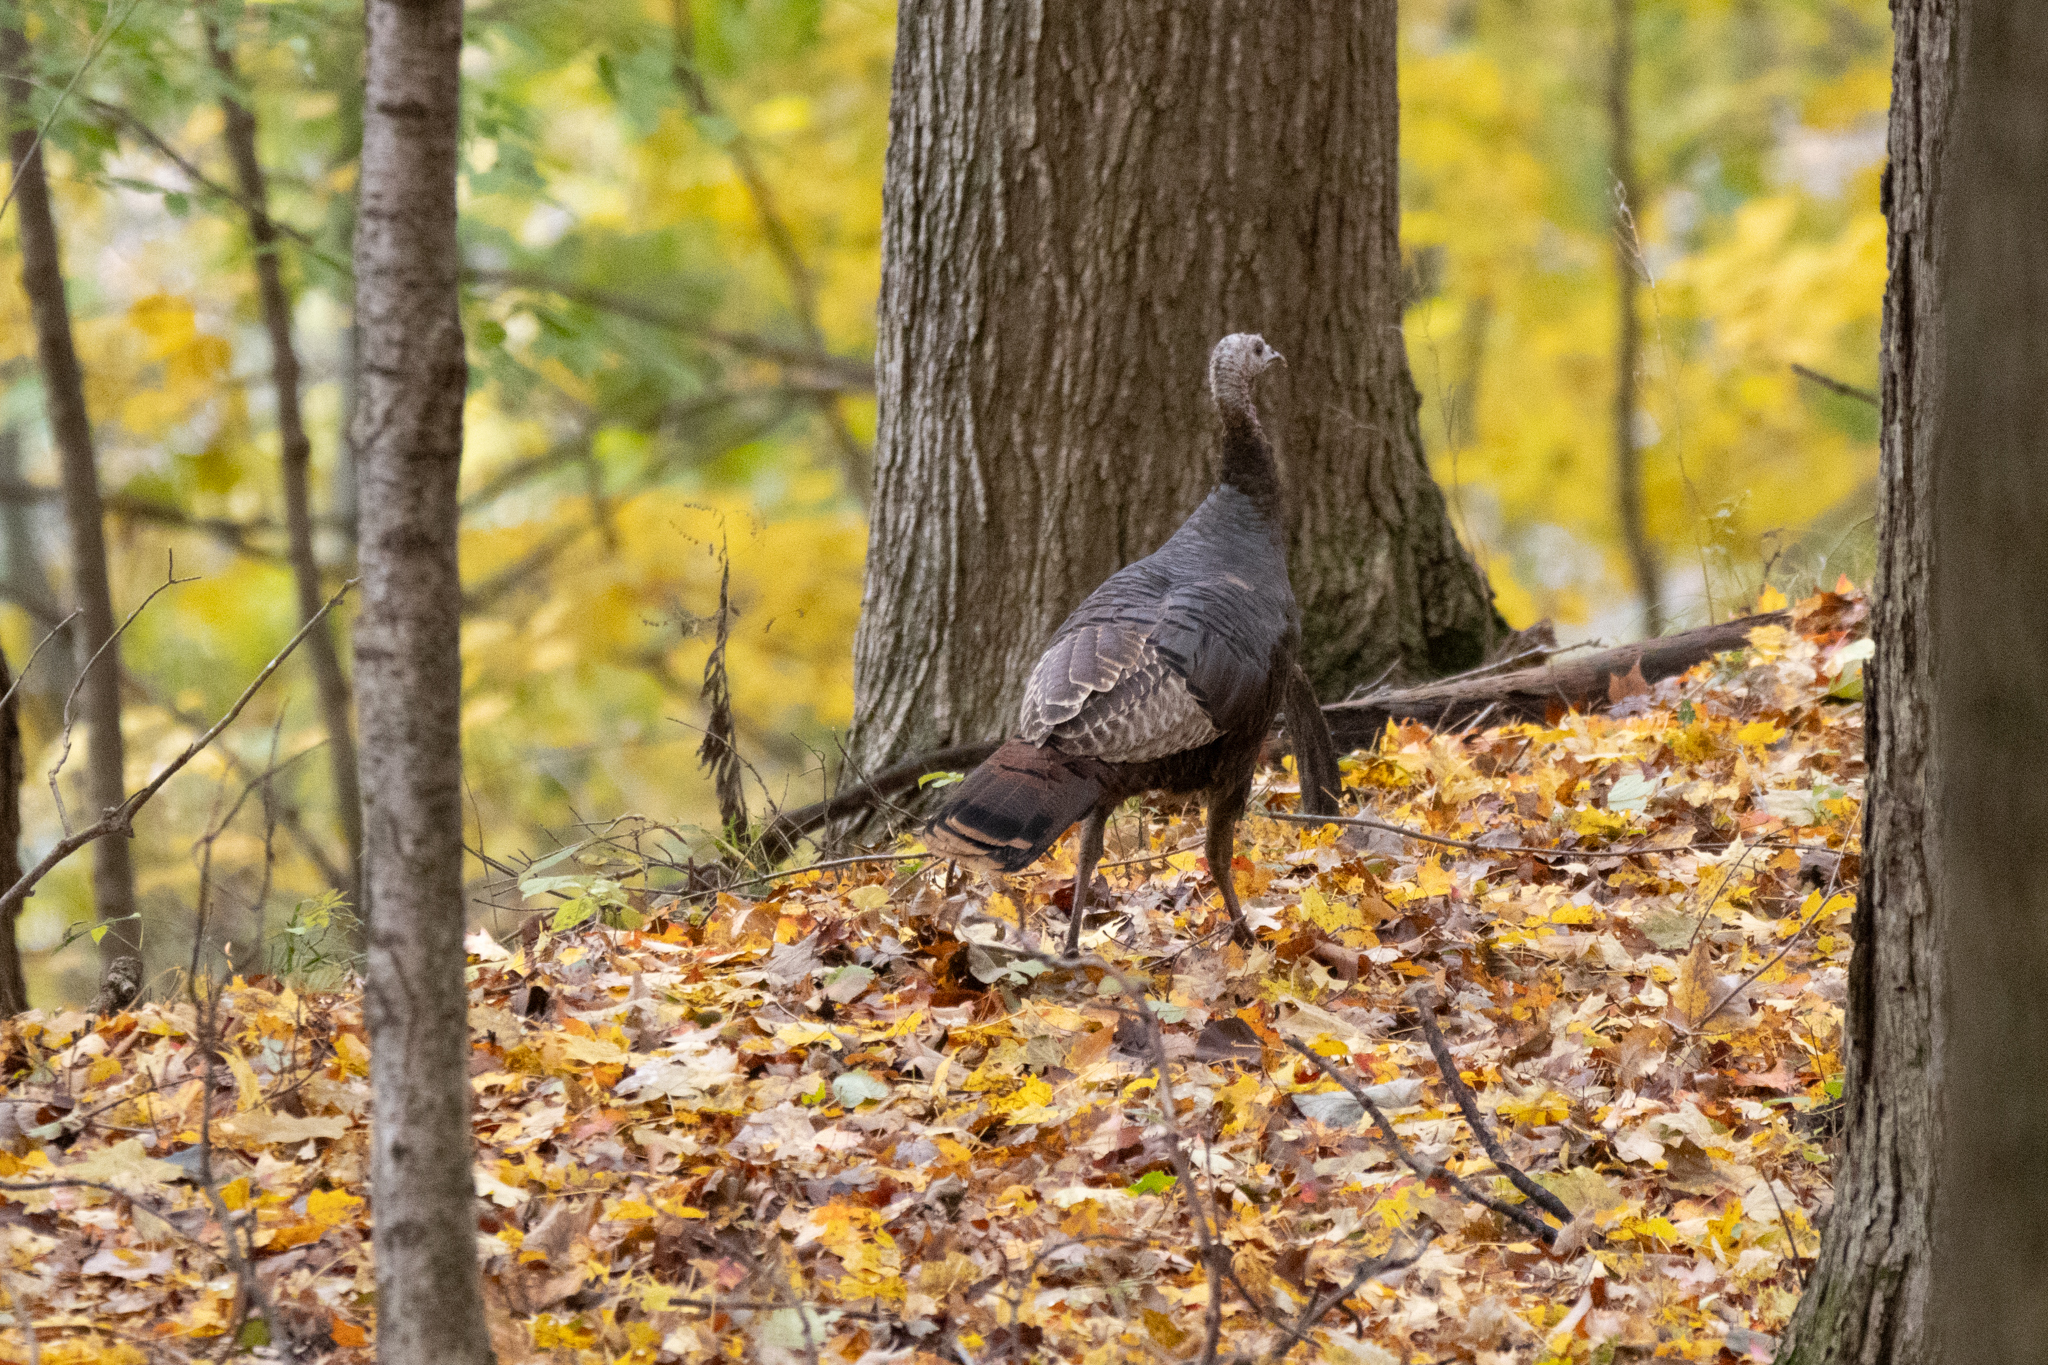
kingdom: Animalia
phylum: Chordata
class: Aves
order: Galliformes
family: Phasianidae
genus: Meleagris
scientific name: Meleagris gallopavo
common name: Wild turkey
